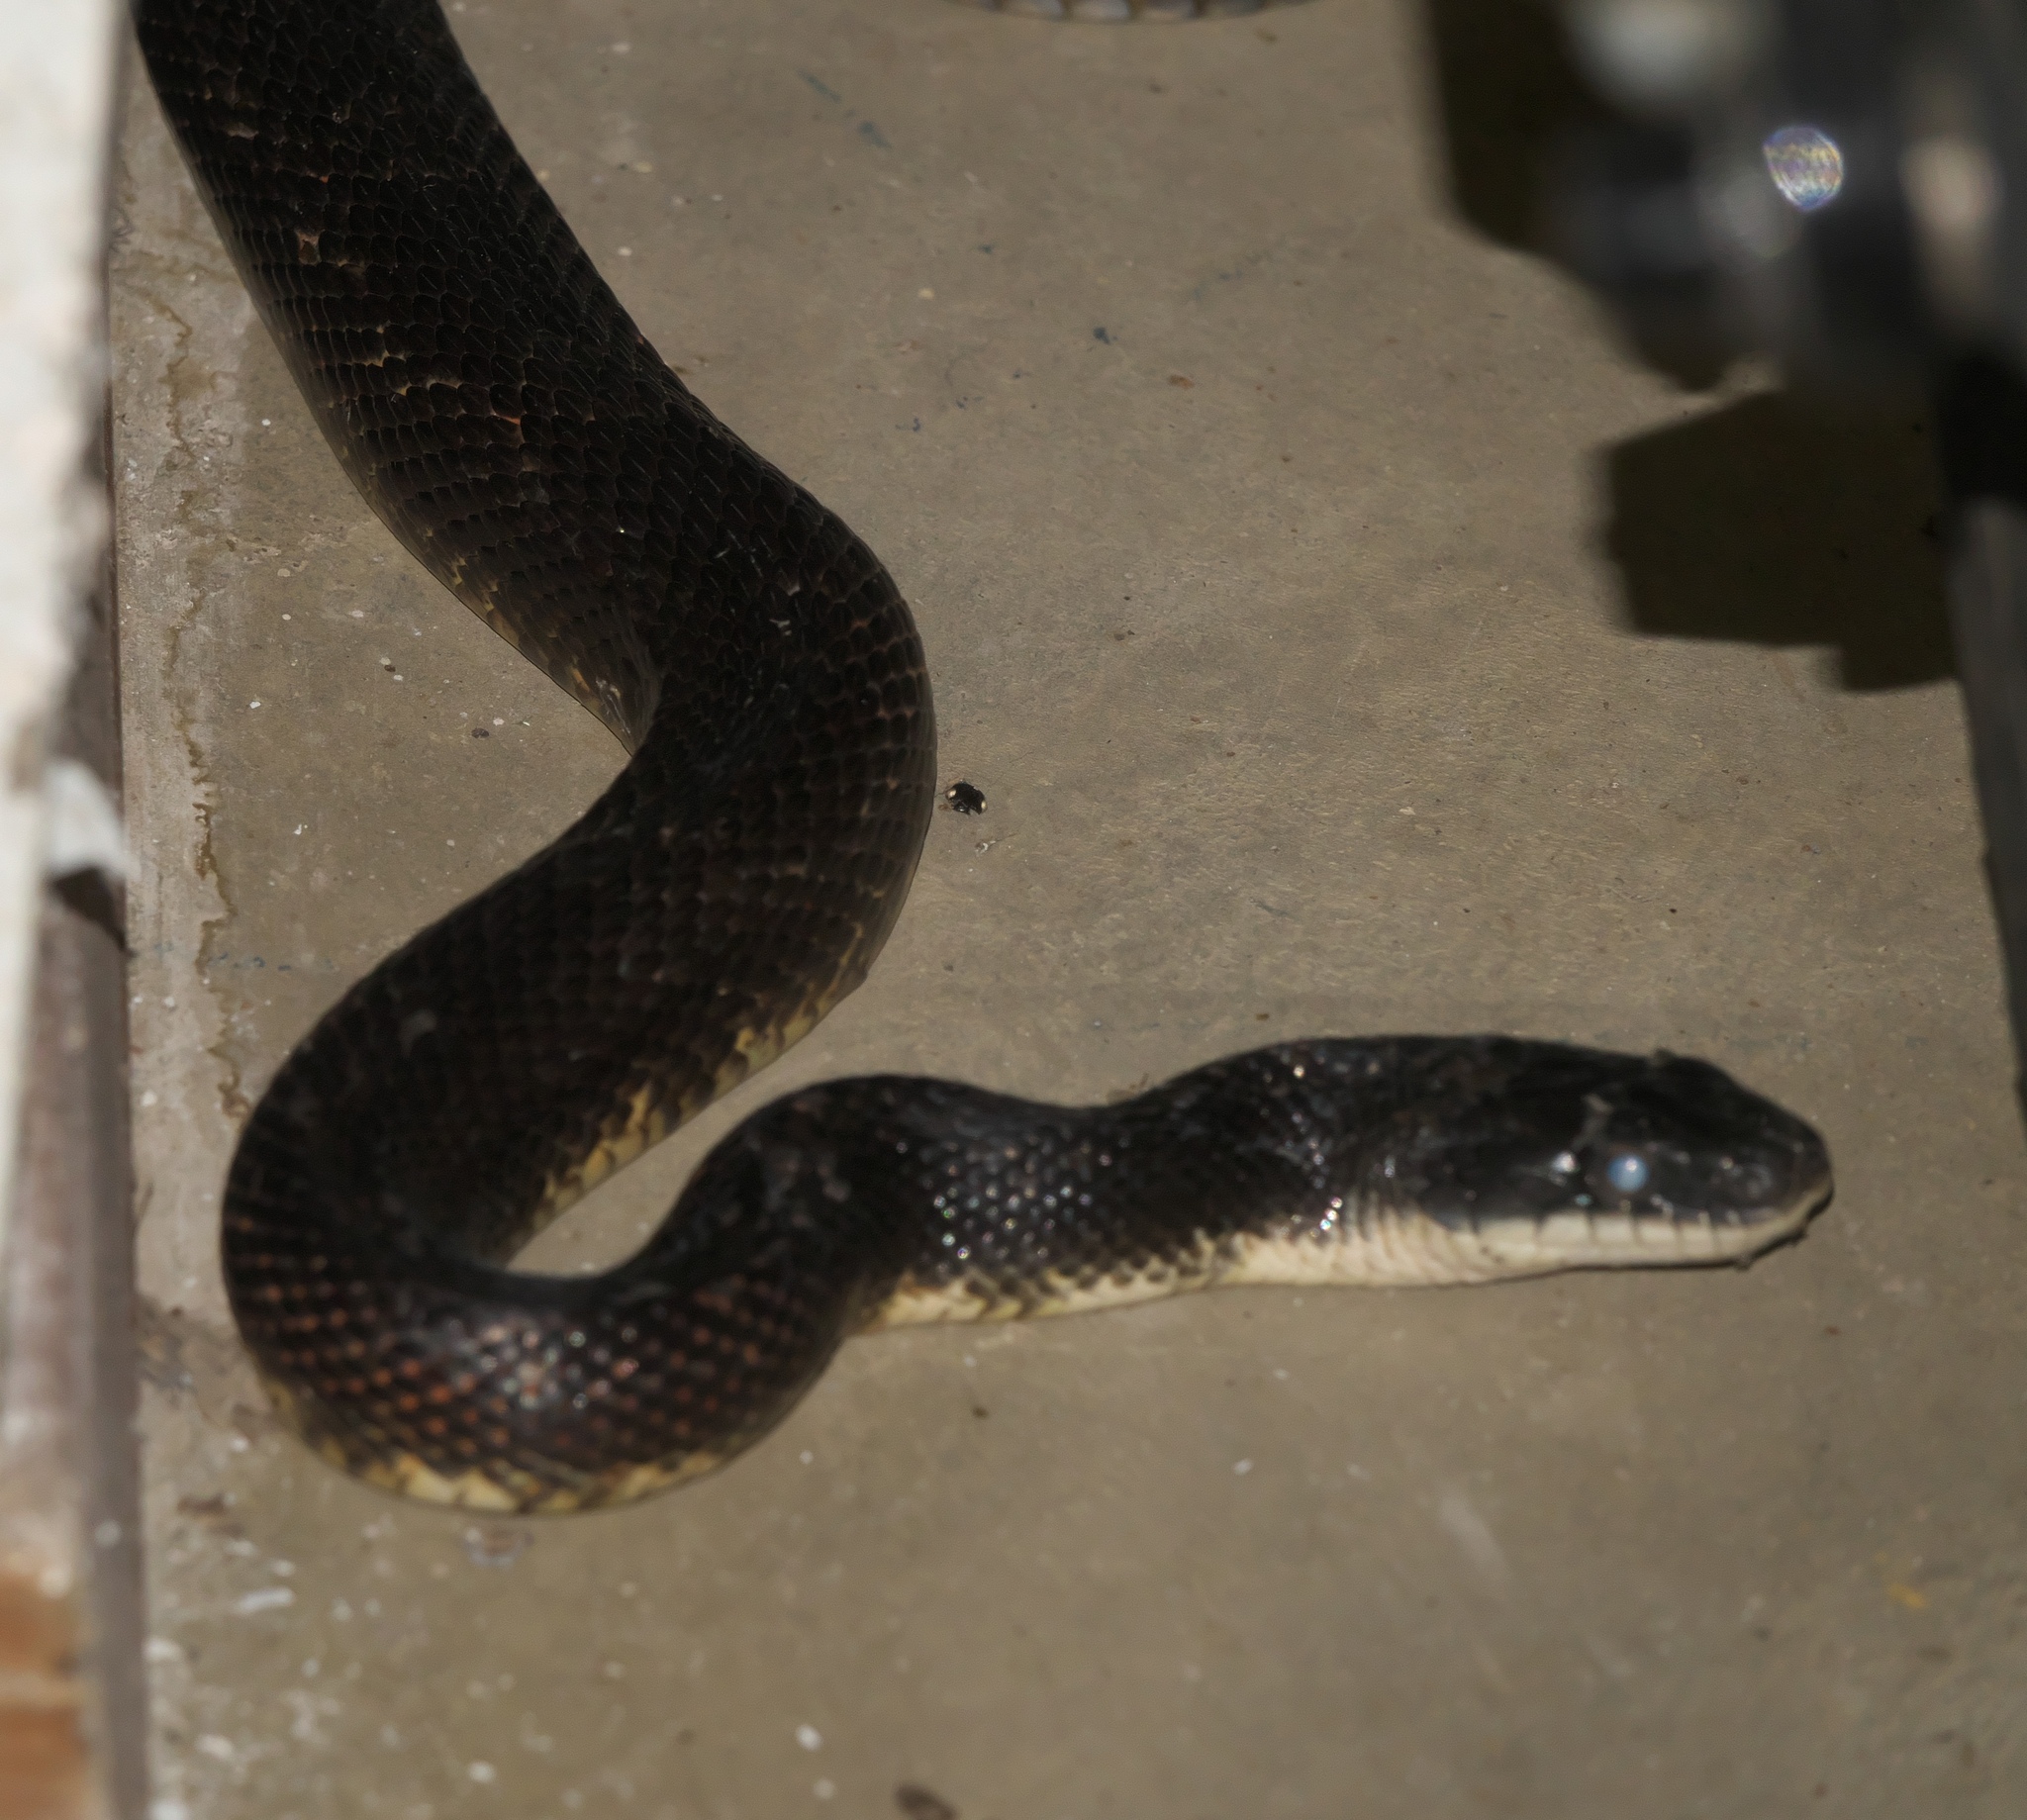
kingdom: Animalia
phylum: Chordata
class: Squamata
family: Colubridae
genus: Pantherophis
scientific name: Pantherophis obsoletus
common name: Black rat snake
